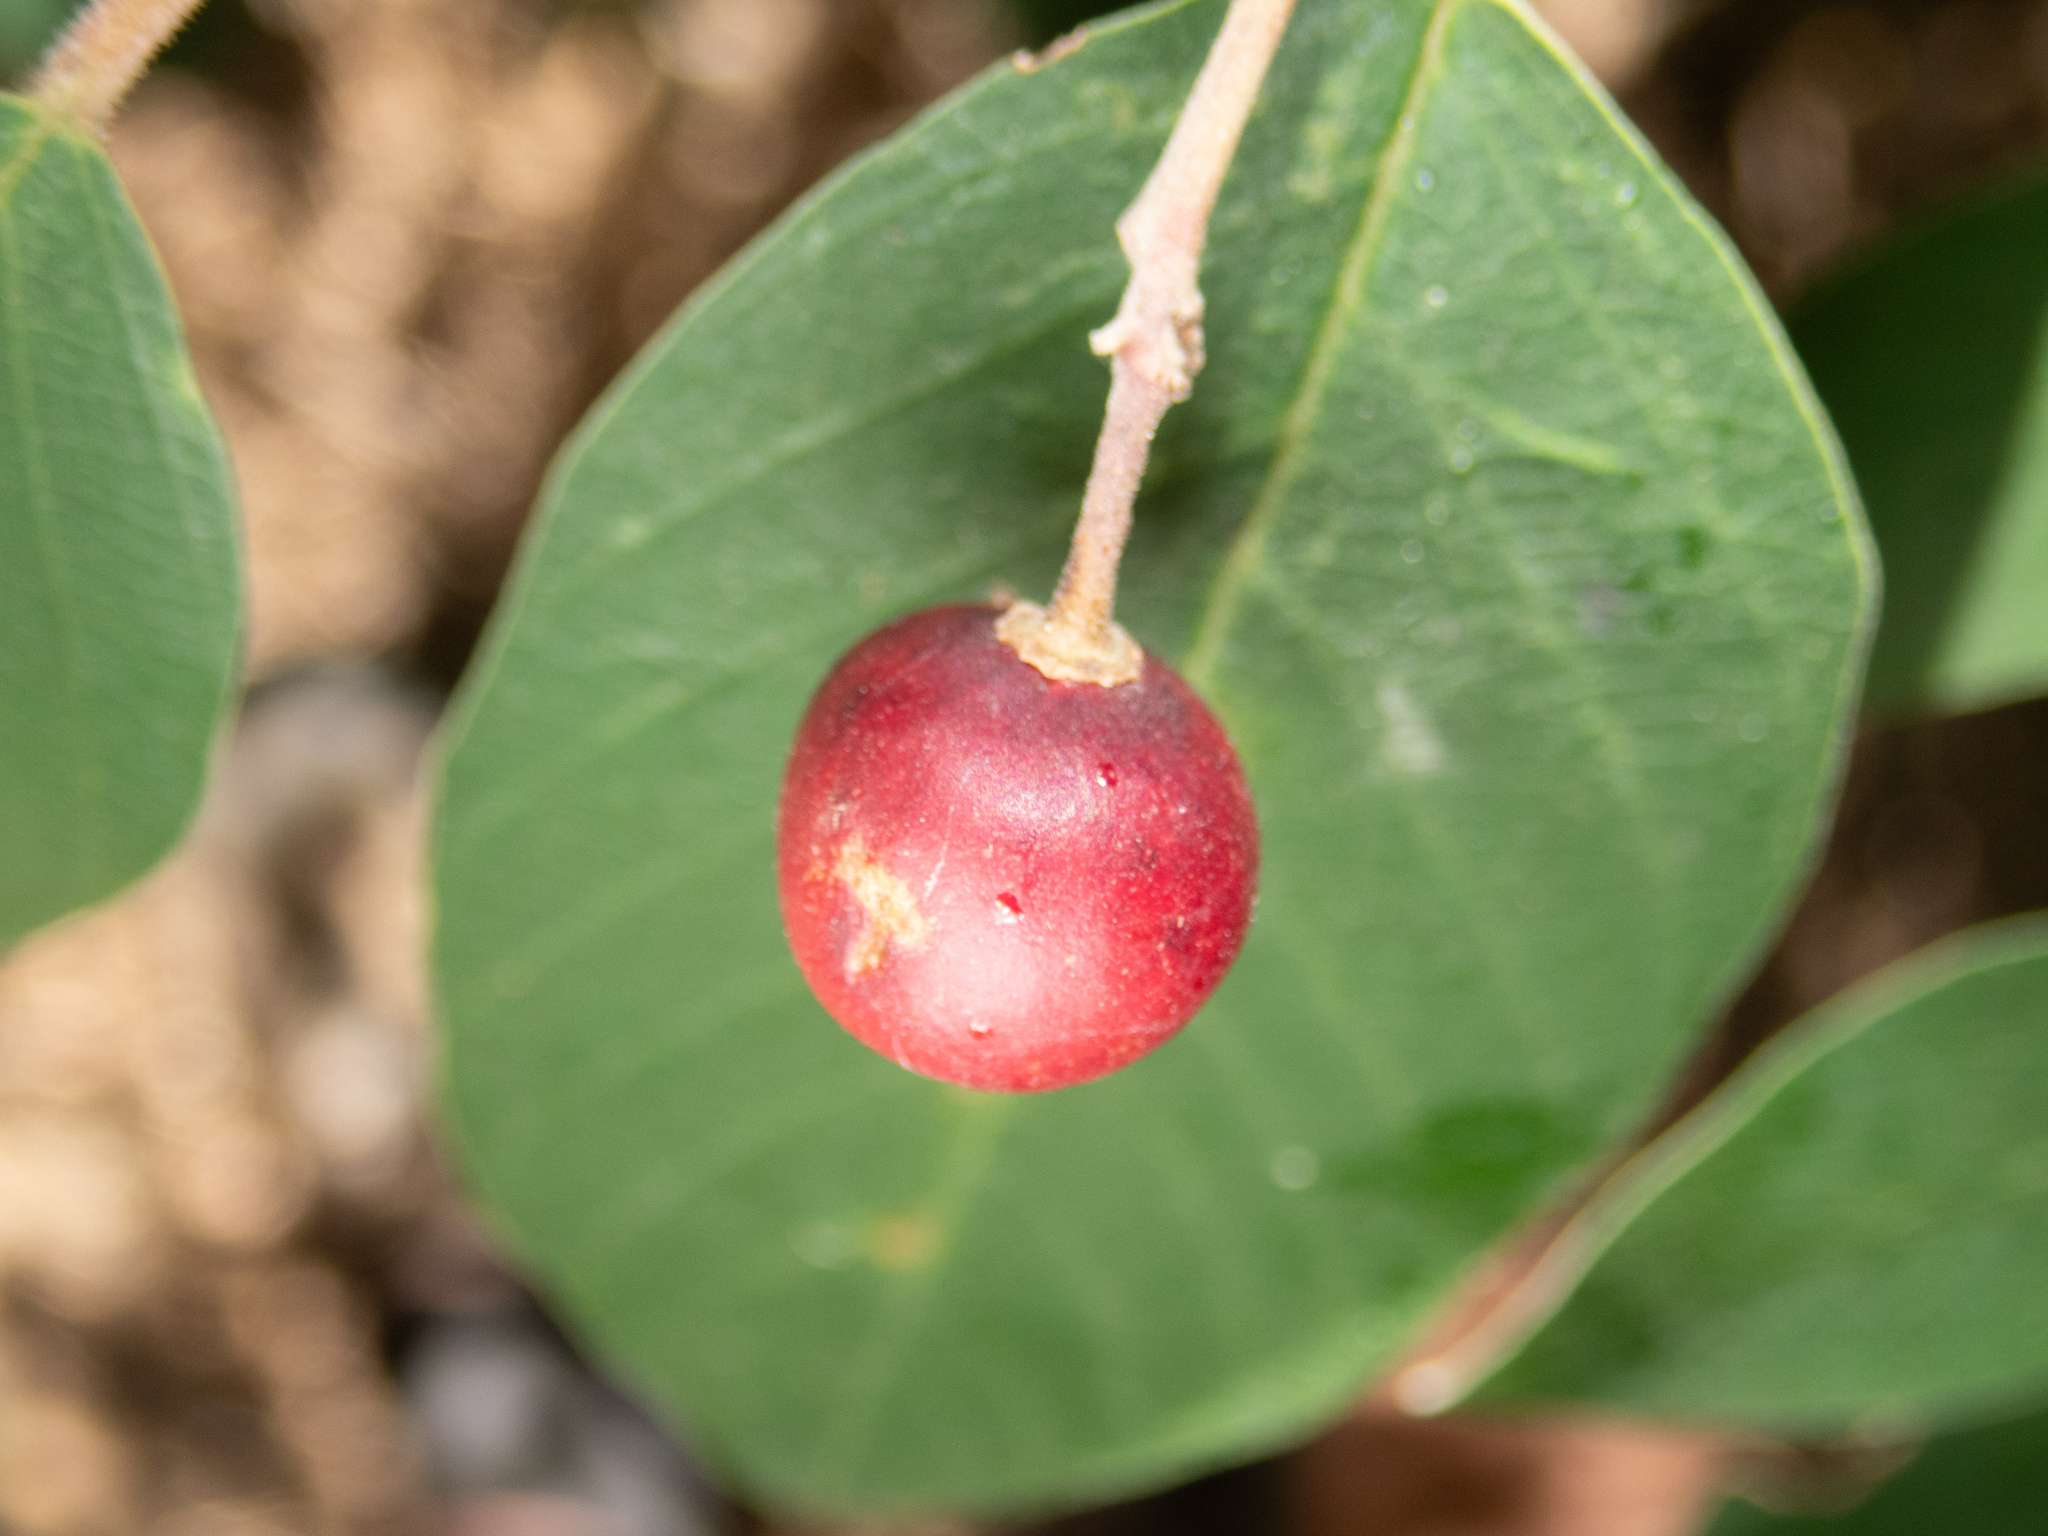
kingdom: Plantae
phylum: Tracheophyta
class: Magnoliopsida
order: Rosales
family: Rhamnaceae
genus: Frangula
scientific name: Frangula californica
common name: California buckthorn
